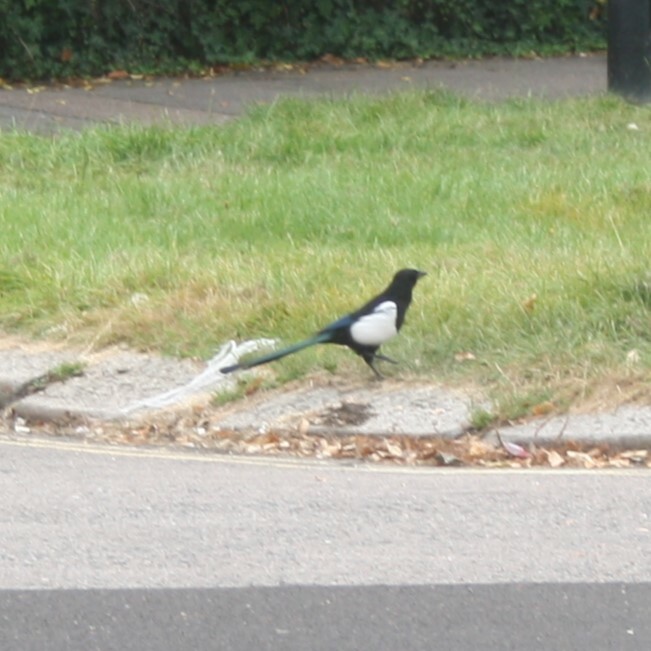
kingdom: Animalia
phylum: Chordata
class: Aves
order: Passeriformes
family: Corvidae
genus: Pica
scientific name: Pica pica
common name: Eurasian magpie
